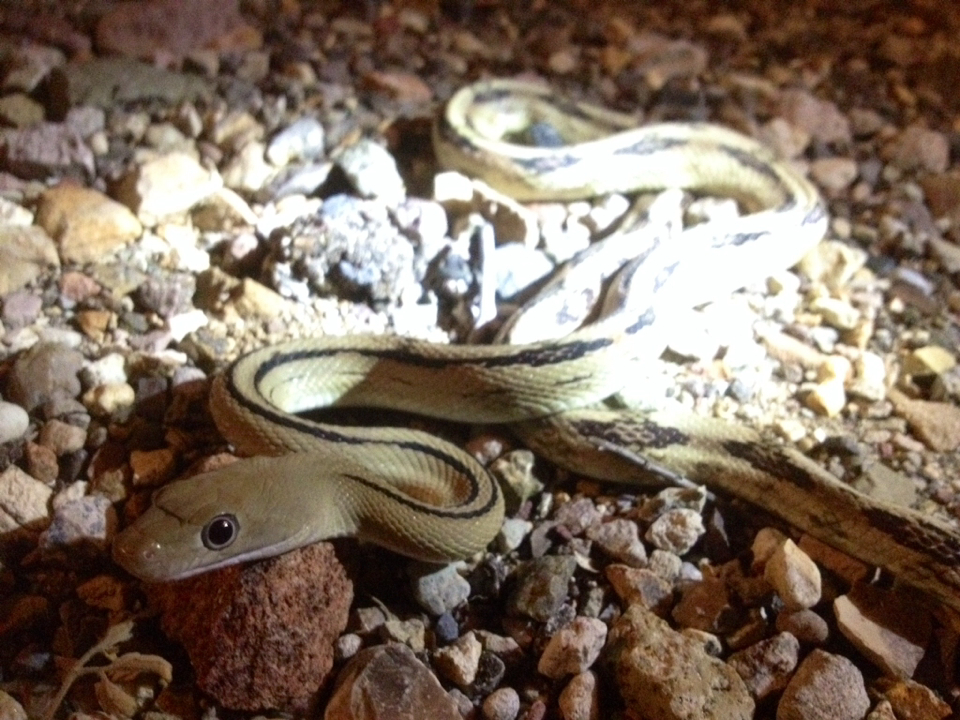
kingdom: Animalia
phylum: Chordata
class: Squamata
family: Colubridae
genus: Bogertophis
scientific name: Bogertophis subocularis
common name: Trans-pecos rat snake
